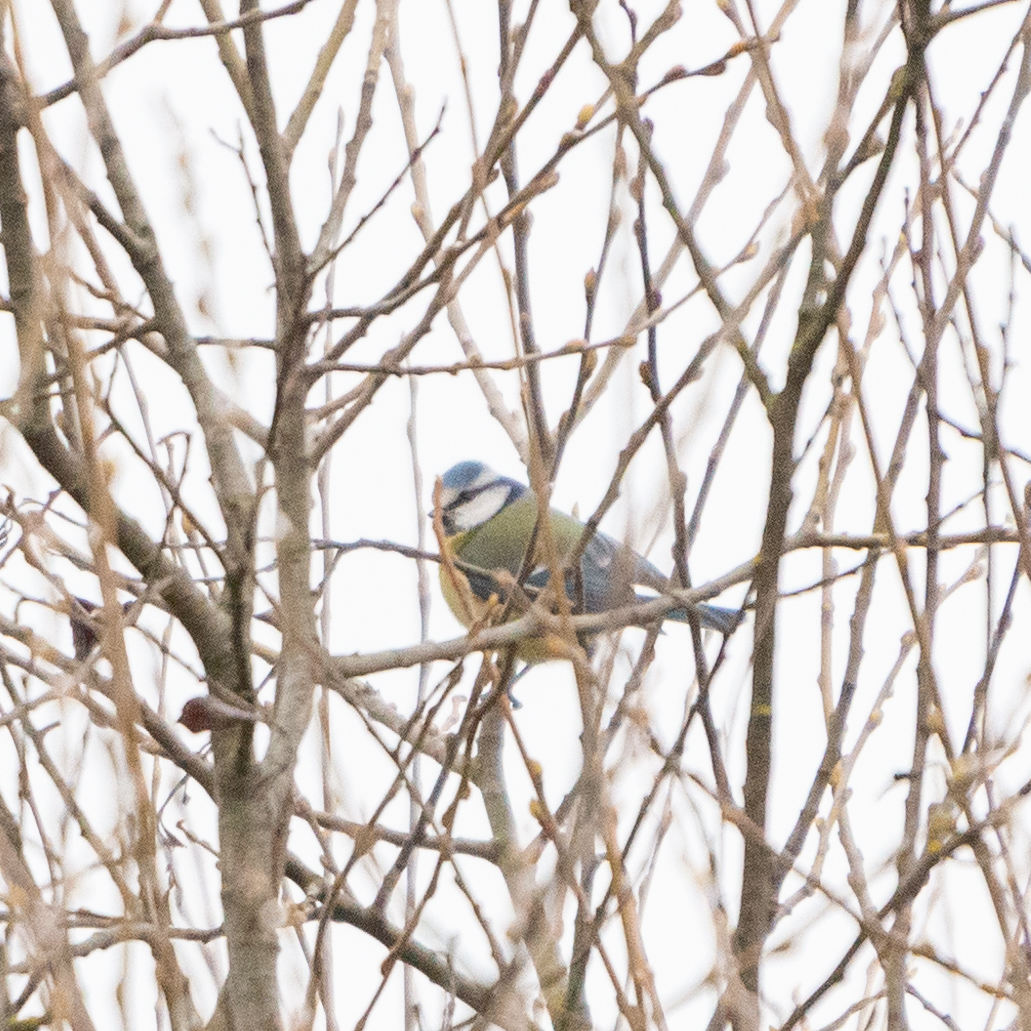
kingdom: Animalia
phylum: Chordata
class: Aves
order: Passeriformes
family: Paridae
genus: Cyanistes
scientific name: Cyanistes caeruleus
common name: Eurasian blue tit
